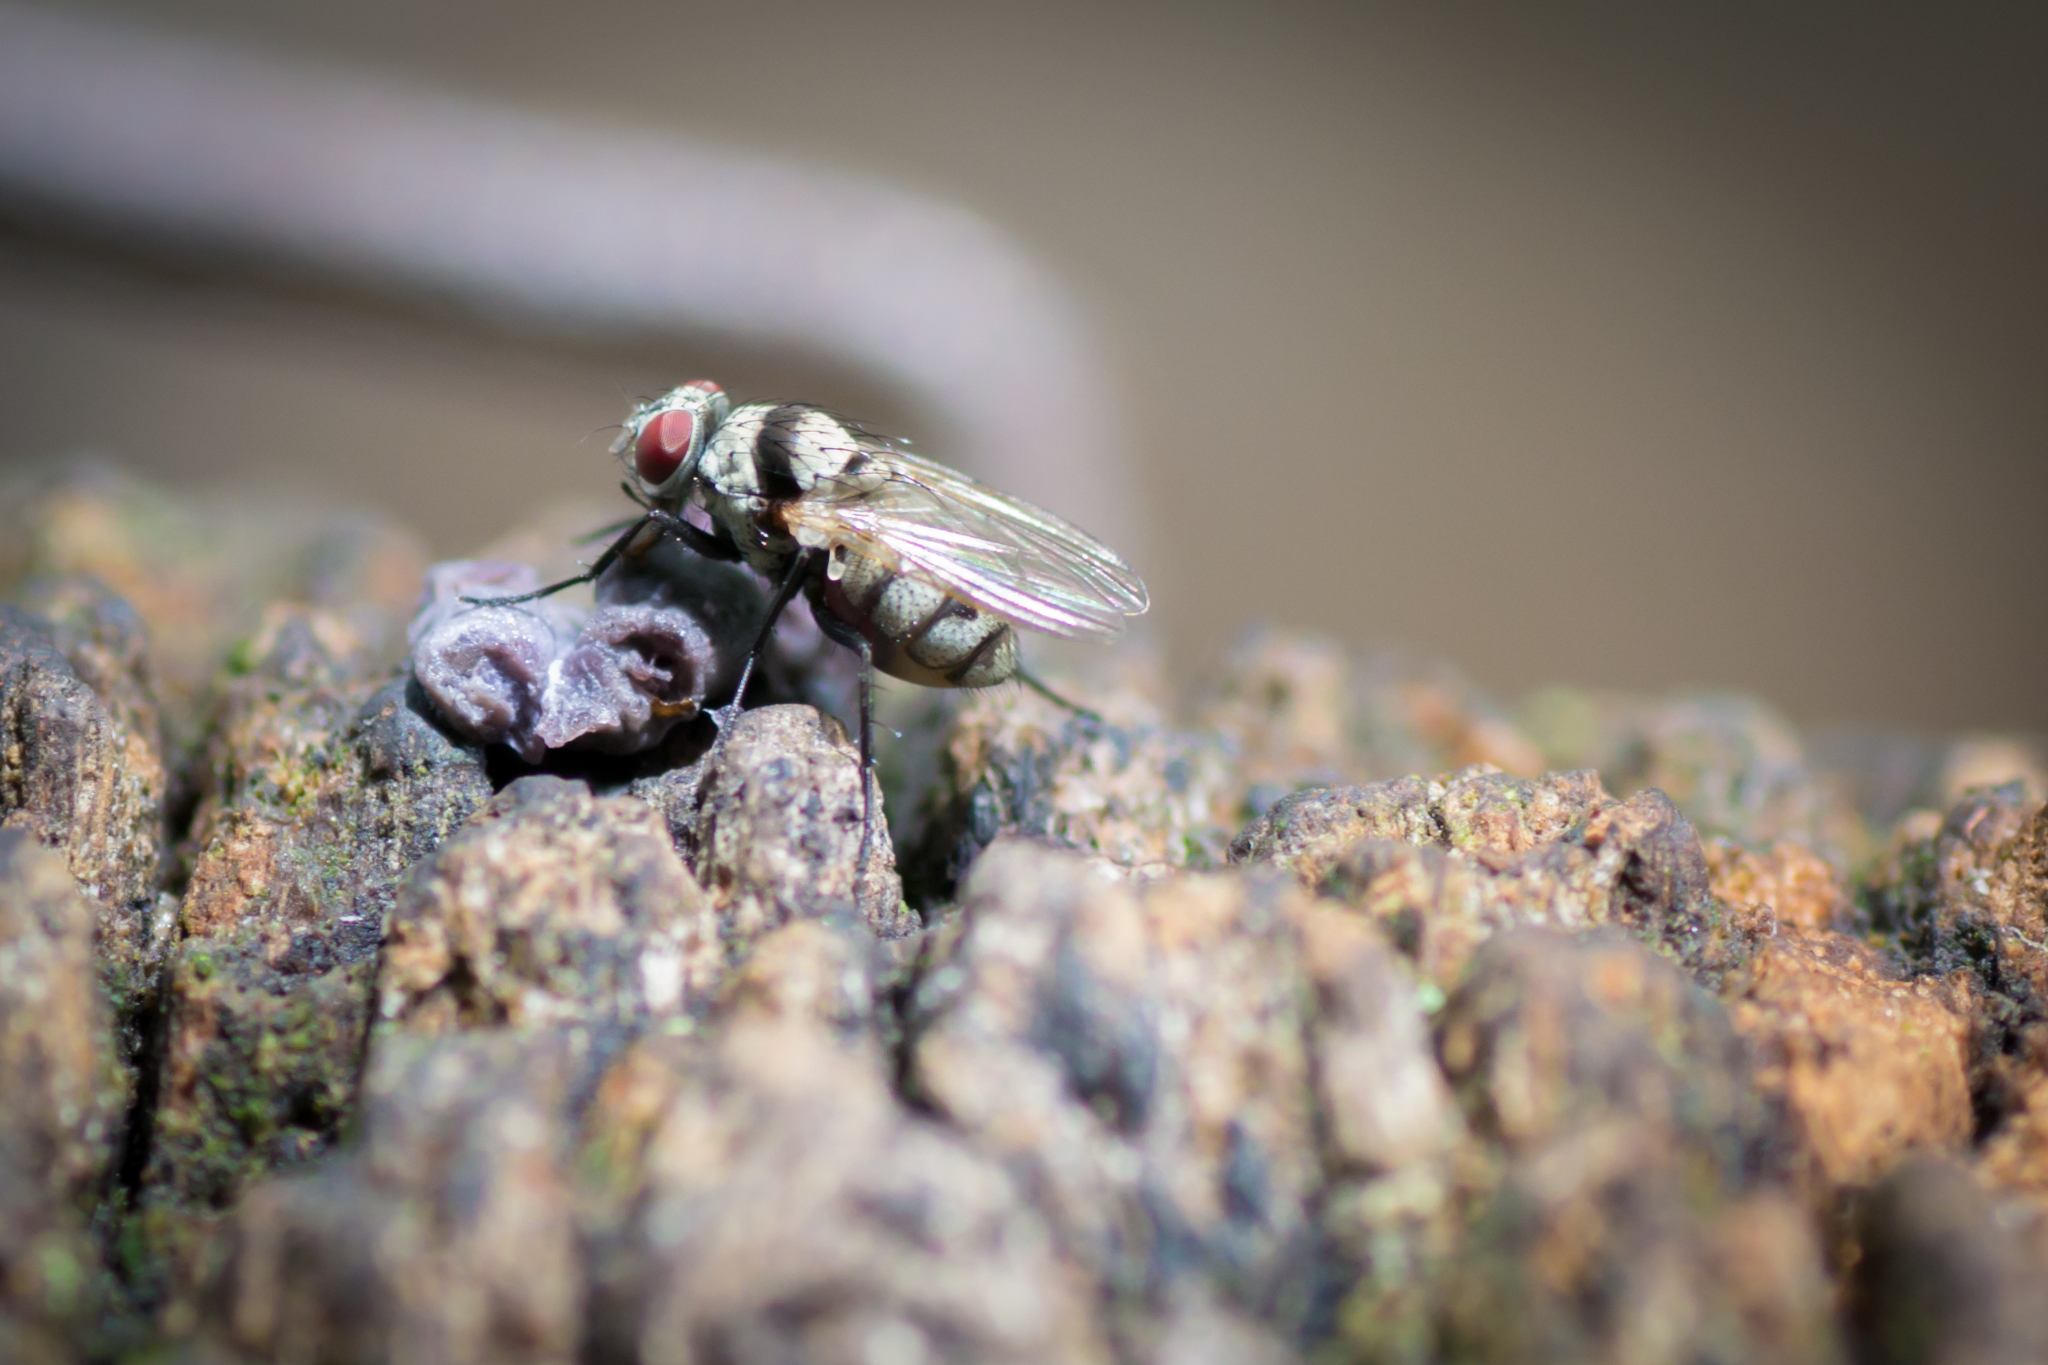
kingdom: Animalia
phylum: Arthropoda
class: Insecta
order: Diptera
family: Anthomyiidae
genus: Anthomyia
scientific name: Anthomyia illocata
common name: Fly
